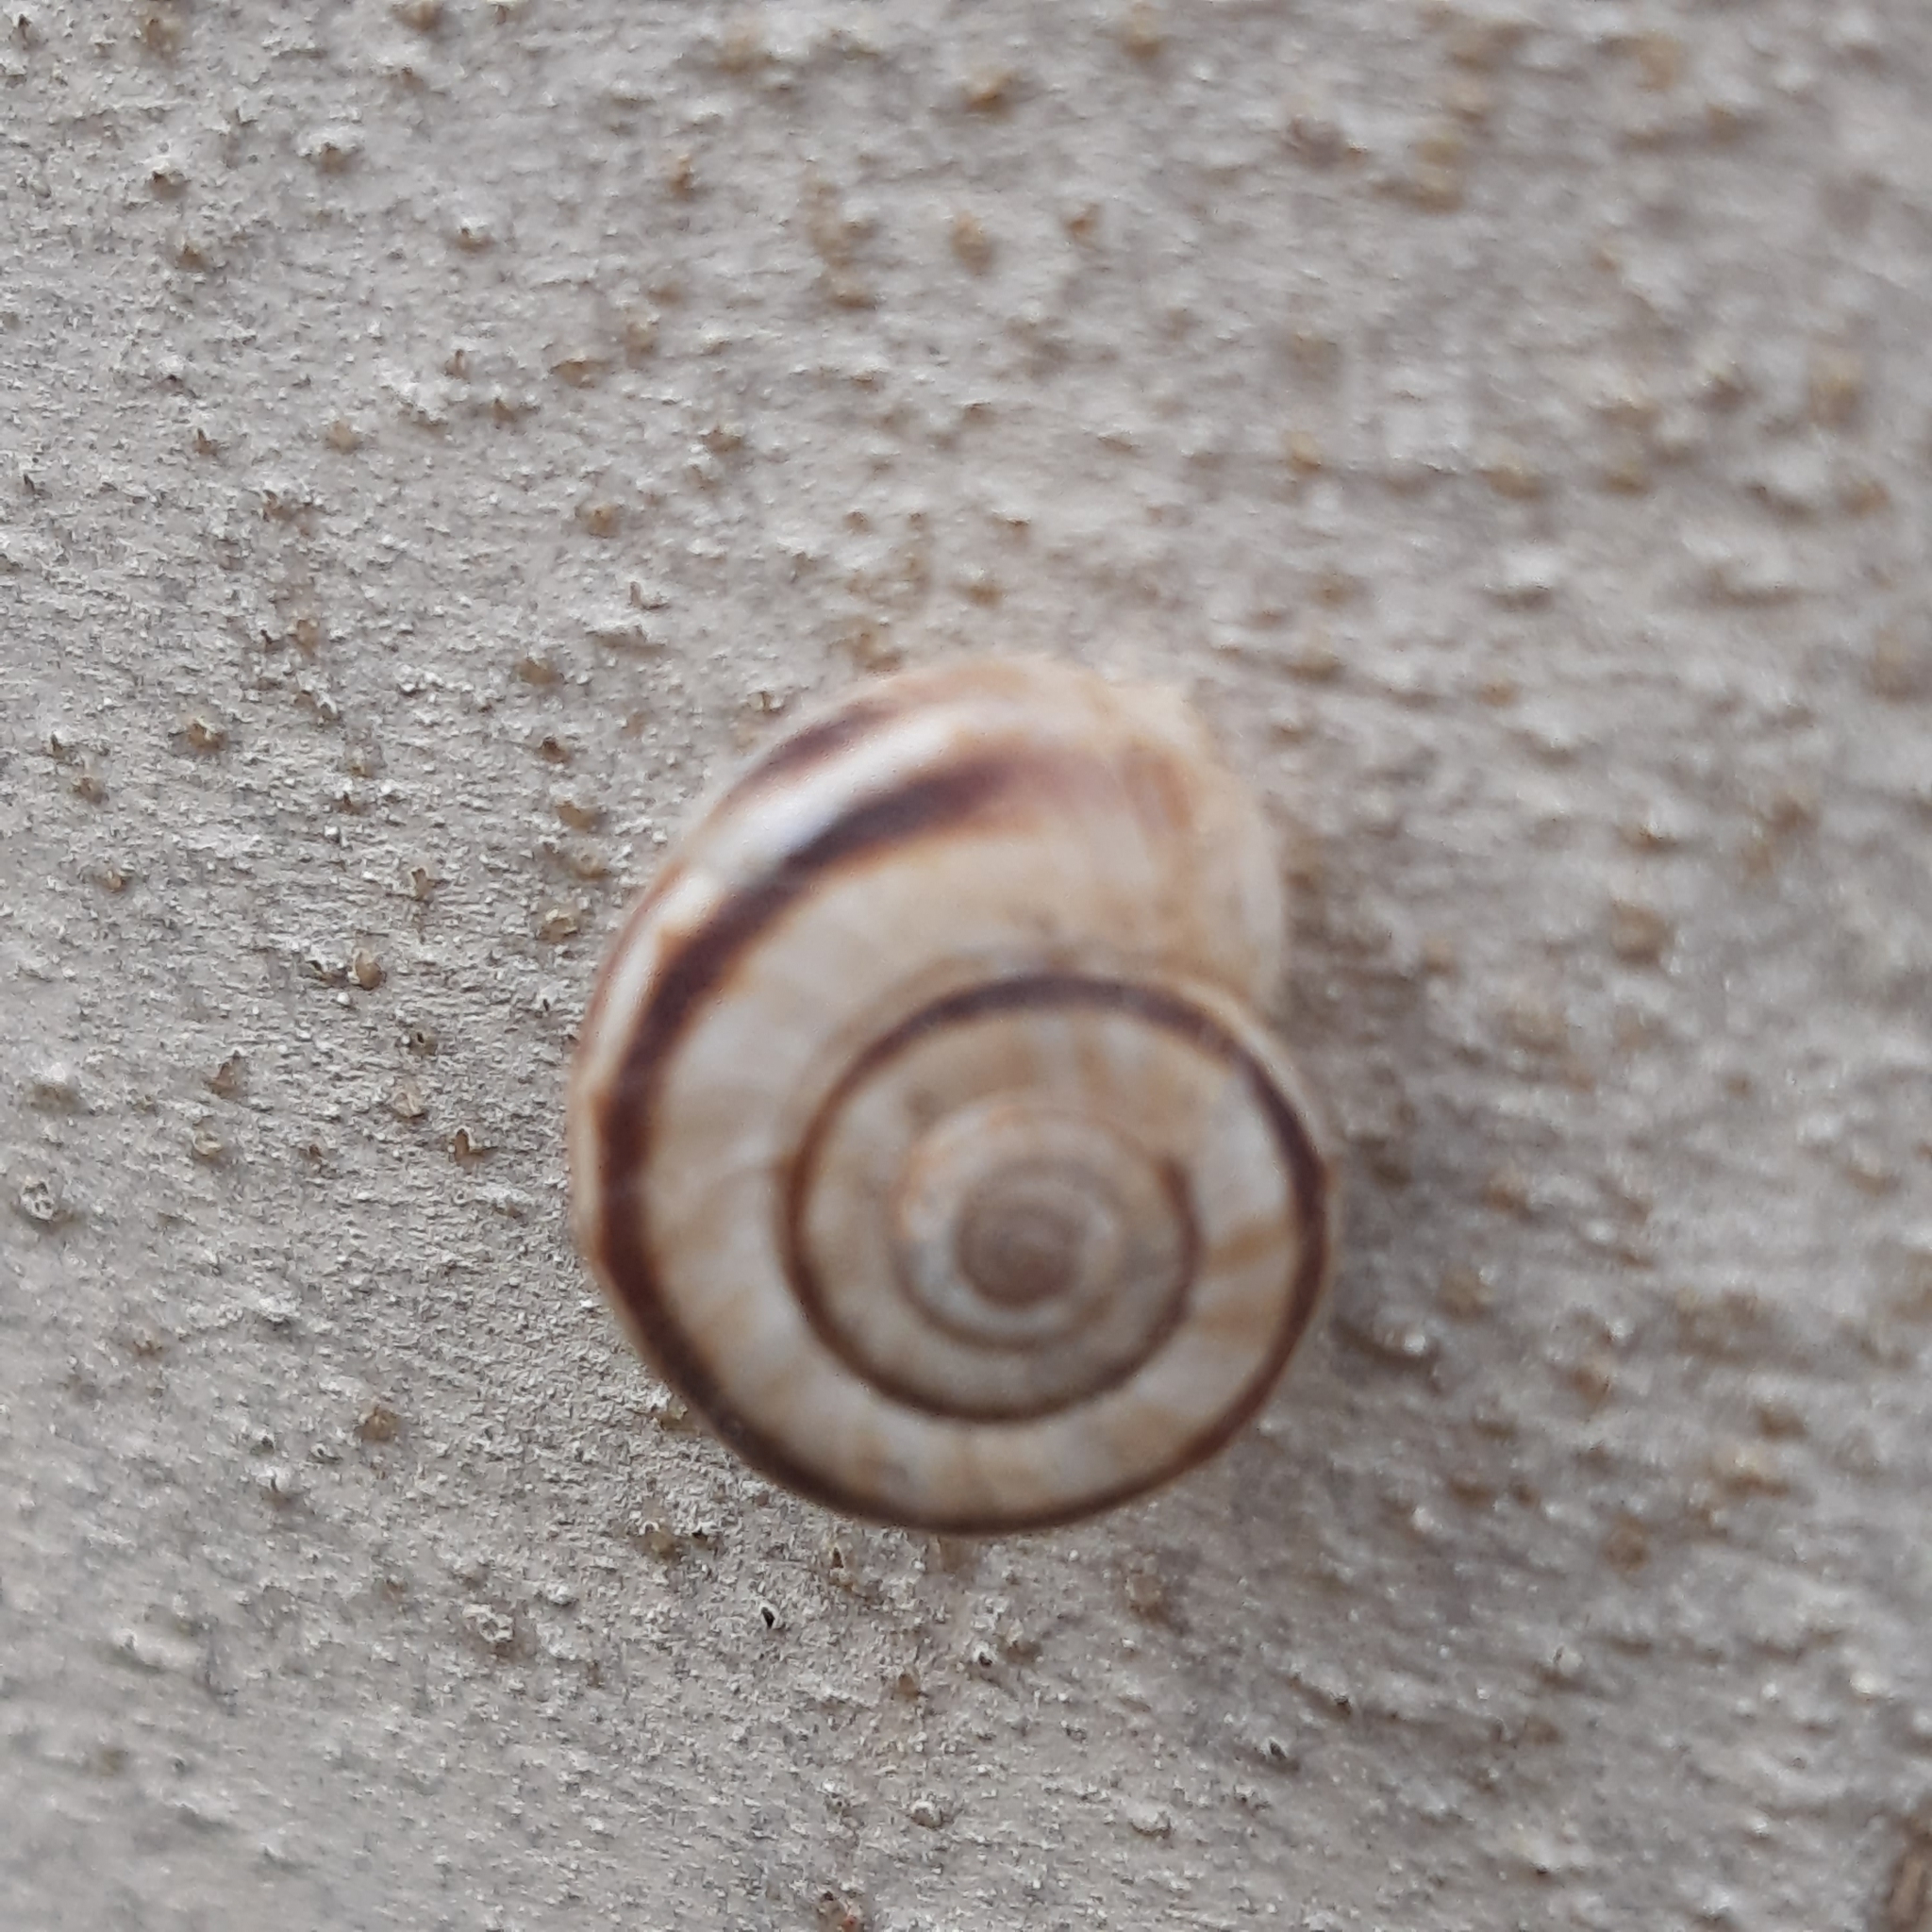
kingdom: Animalia
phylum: Mollusca
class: Gastropoda
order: Stylommatophora
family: Geomitridae
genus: Xerolenta
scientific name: Xerolenta obvia
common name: White heath snail
